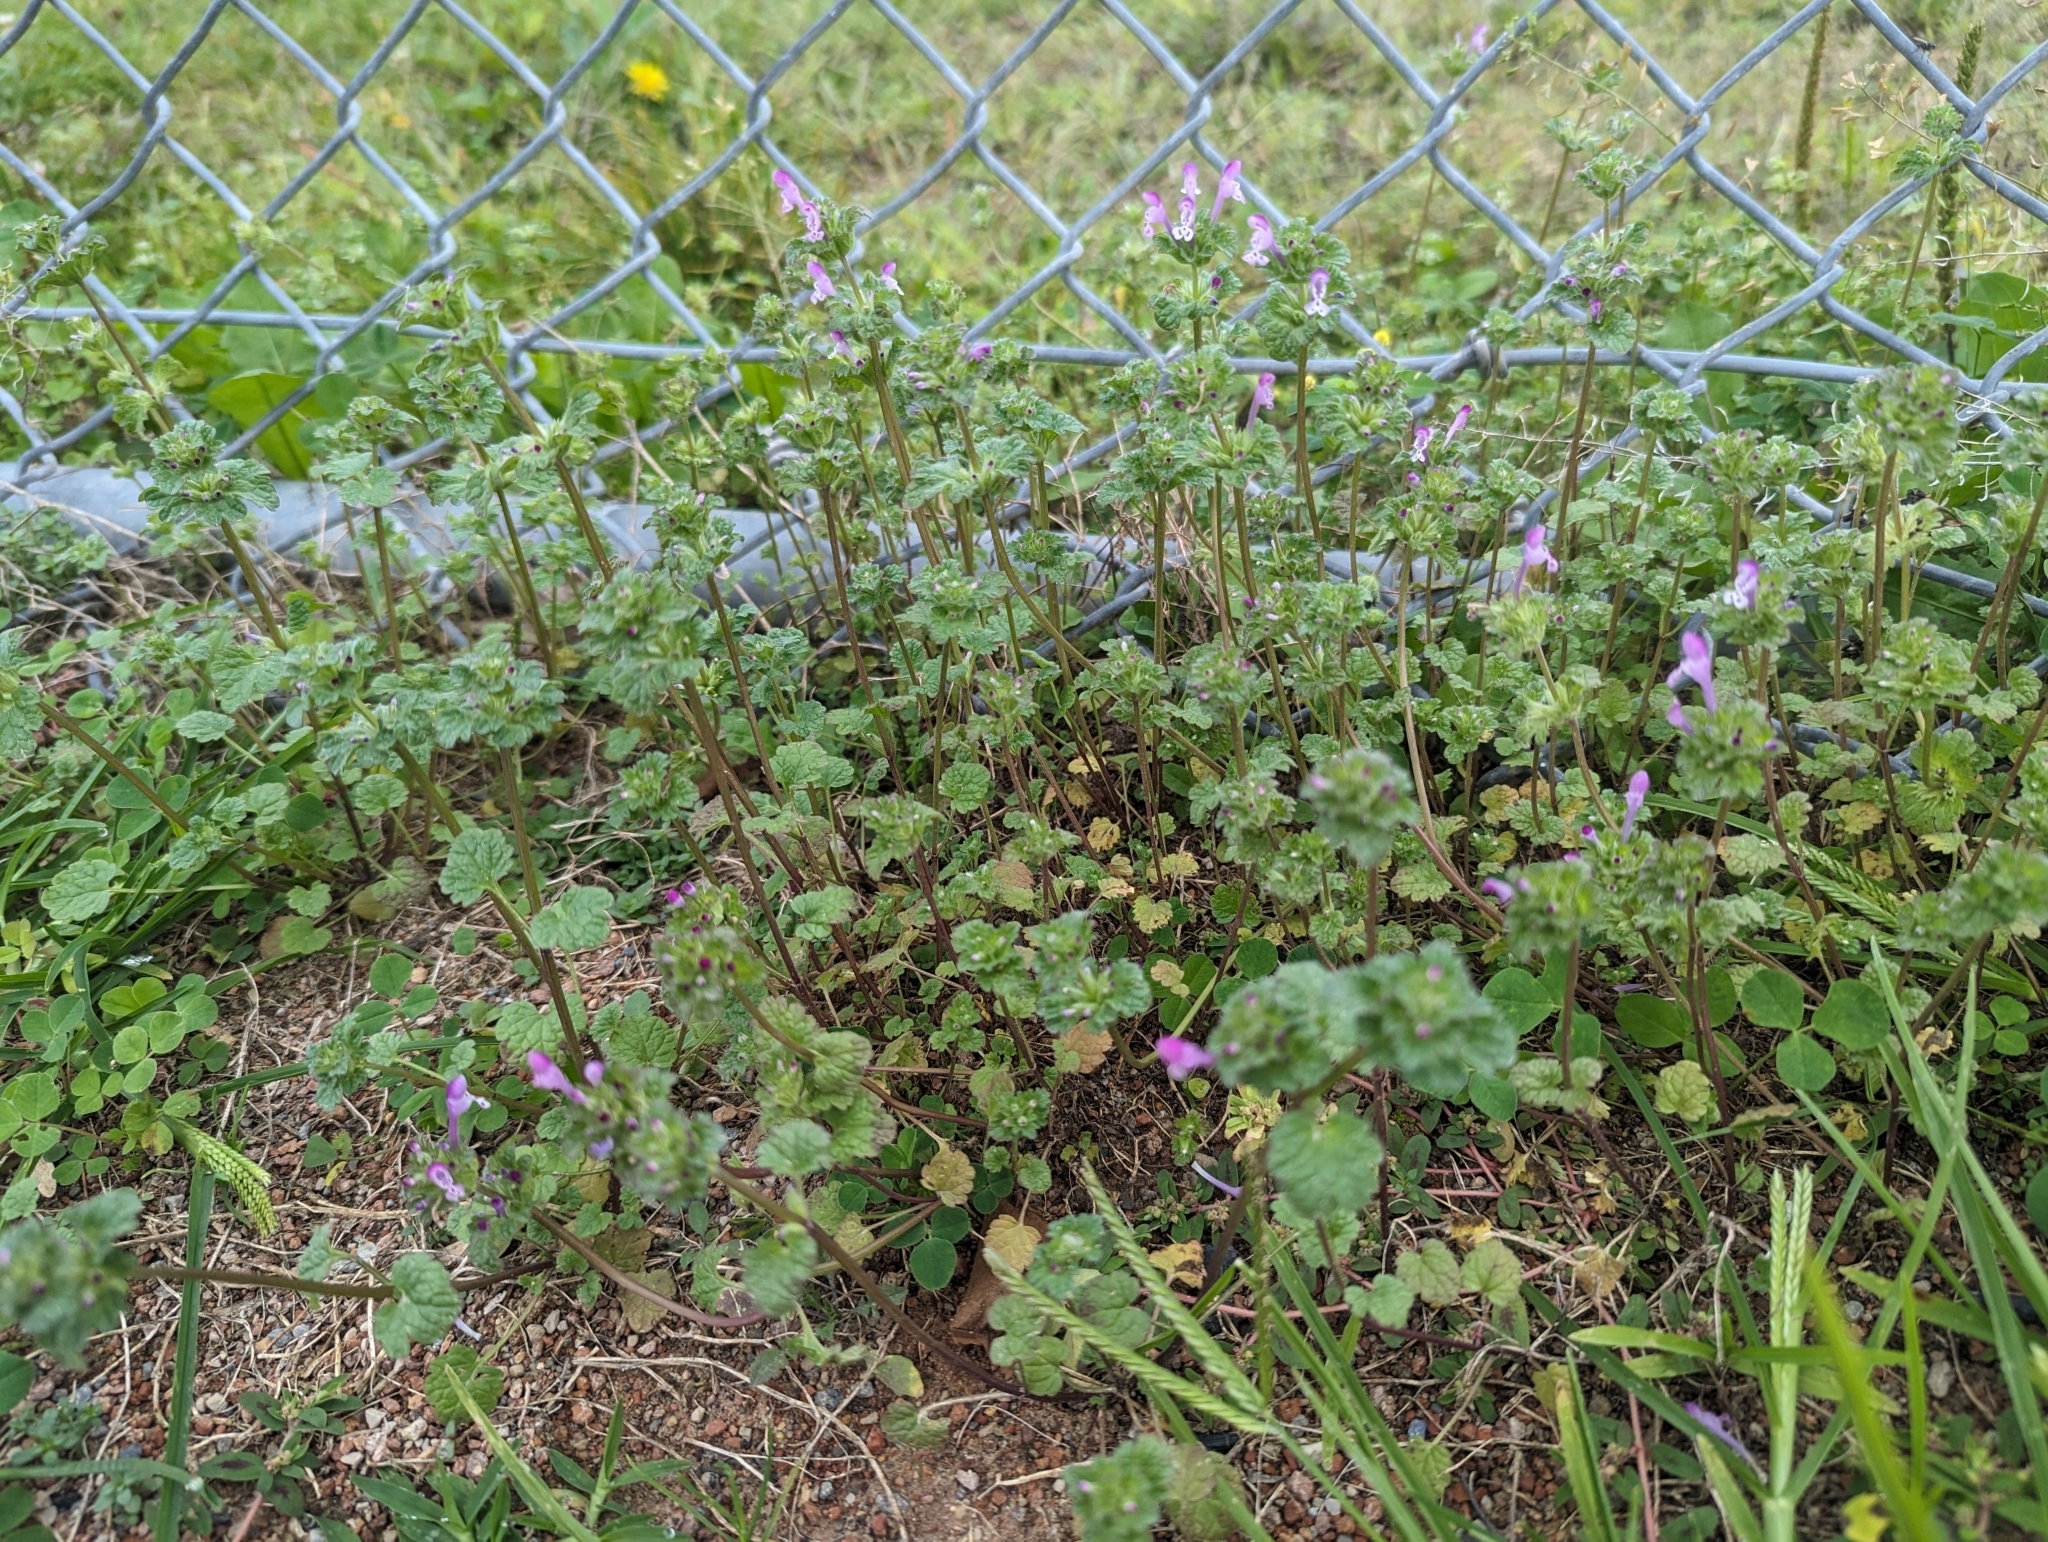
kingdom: Plantae
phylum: Tracheophyta
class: Magnoliopsida
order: Lamiales
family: Lamiaceae
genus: Lamium
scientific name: Lamium amplexicaule
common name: Henbit dead-nettle
